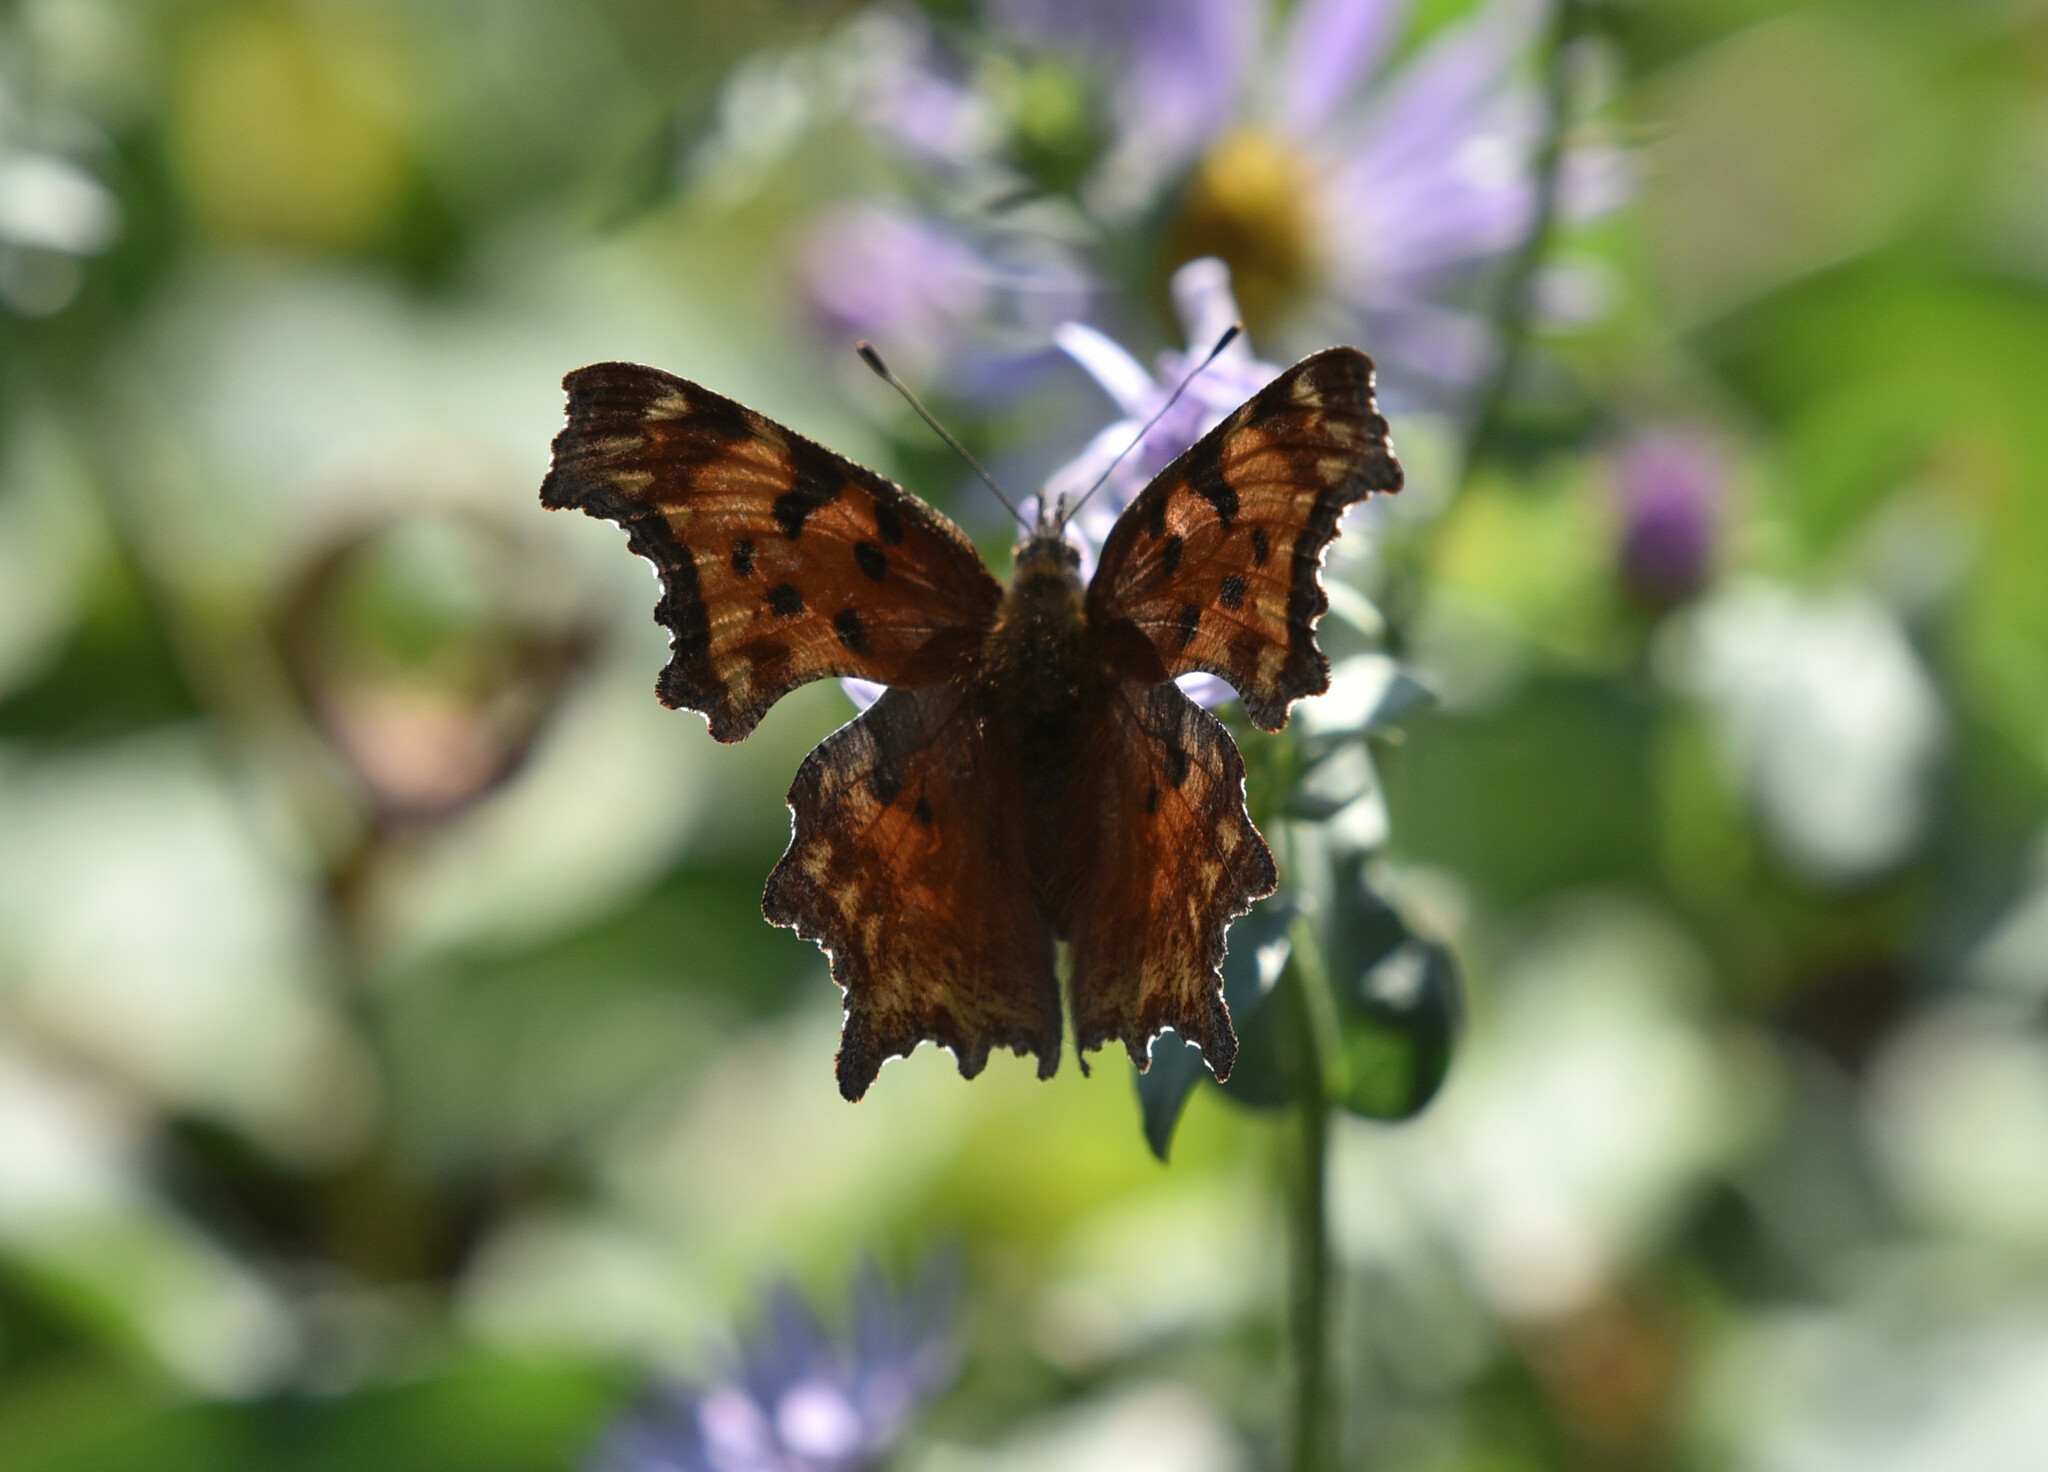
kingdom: Animalia
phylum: Arthropoda
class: Insecta
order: Lepidoptera
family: Nymphalidae
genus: Polygonia
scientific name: Polygonia gracilis
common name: Hoary comma
